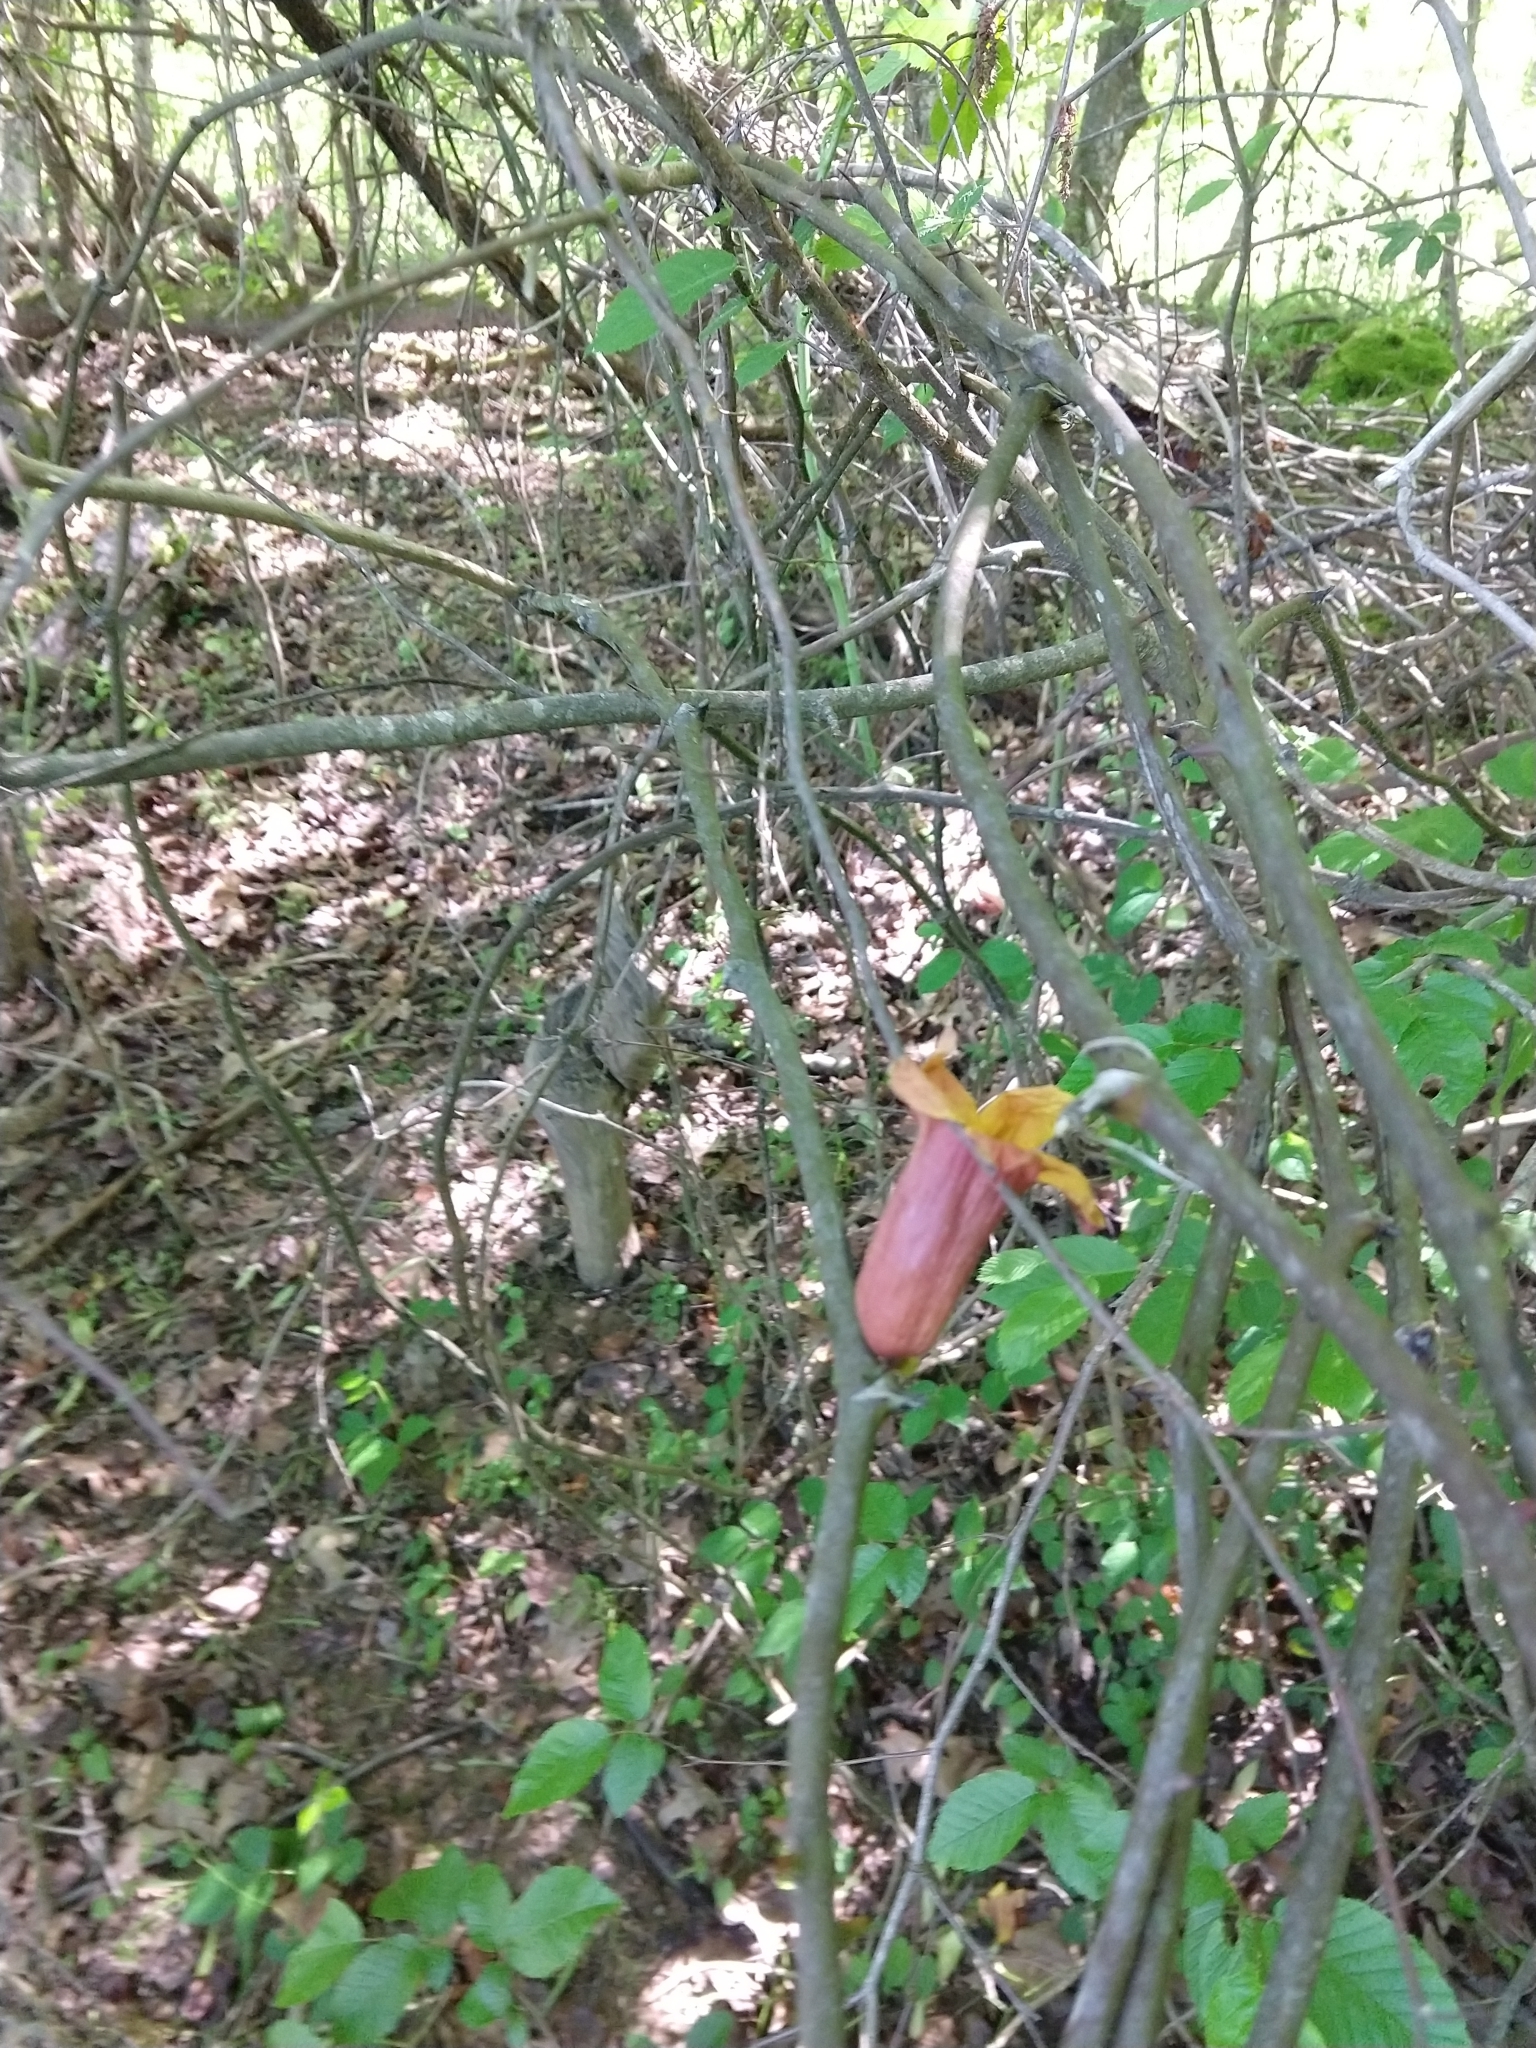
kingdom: Plantae
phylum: Tracheophyta
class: Magnoliopsida
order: Lamiales
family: Bignoniaceae
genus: Bignonia
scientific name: Bignonia capreolata
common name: Crossvine
